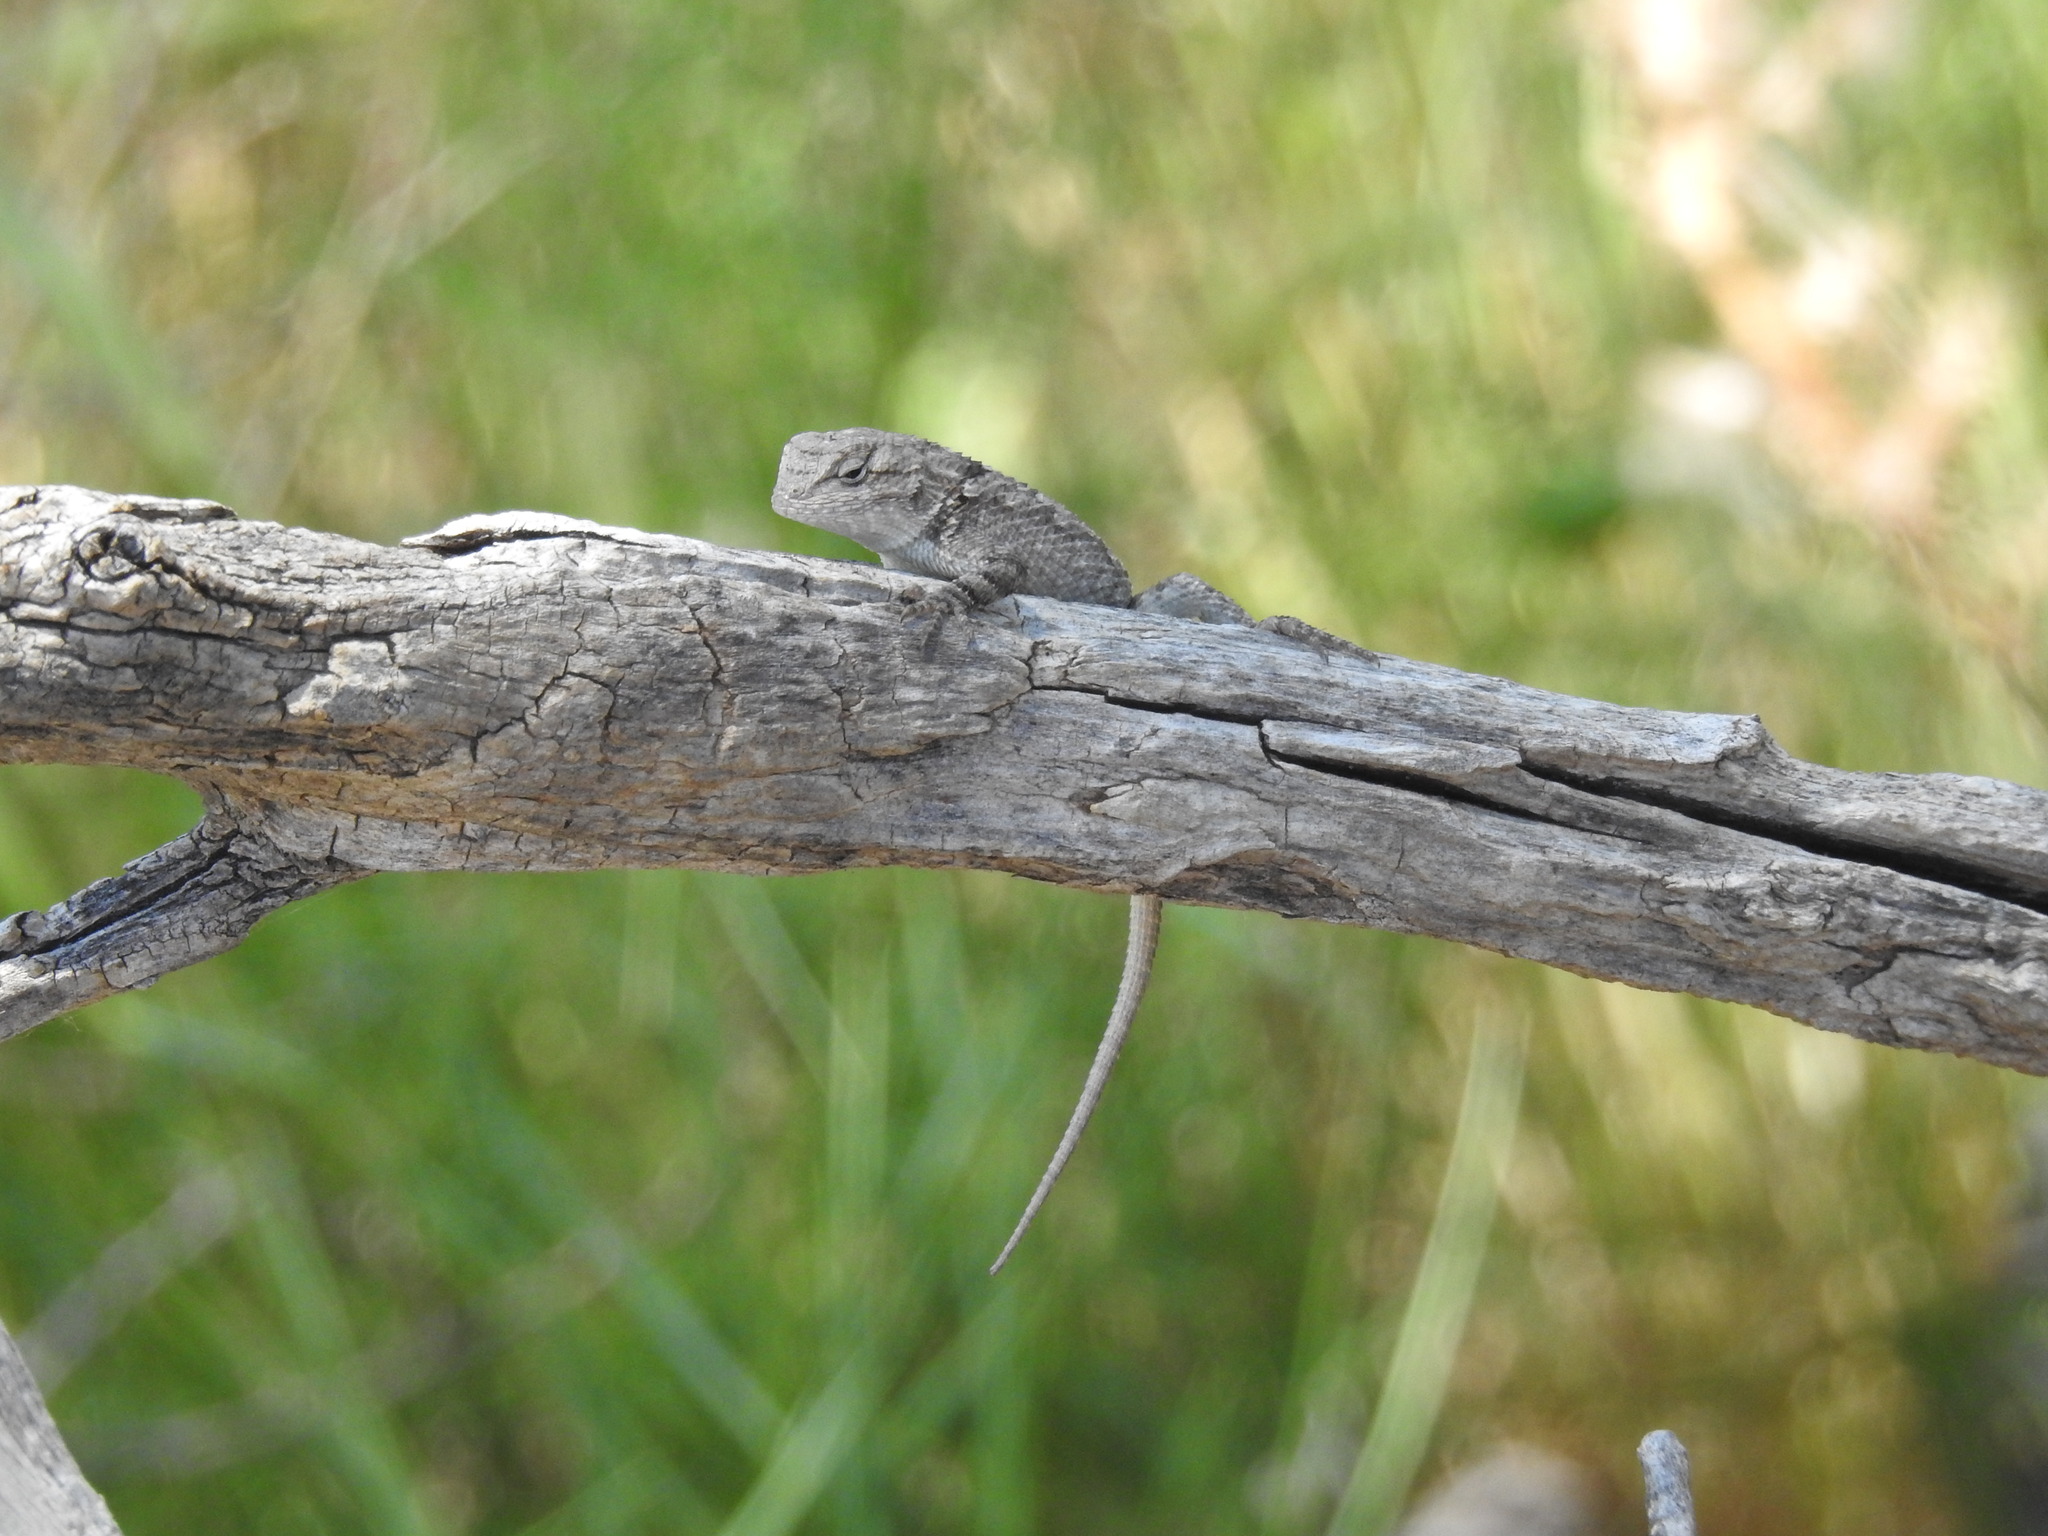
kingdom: Animalia
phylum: Chordata
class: Squamata
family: Phrynosomatidae
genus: Sceloporus
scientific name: Sceloporus clarkii
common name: Clark's spiny lizard
